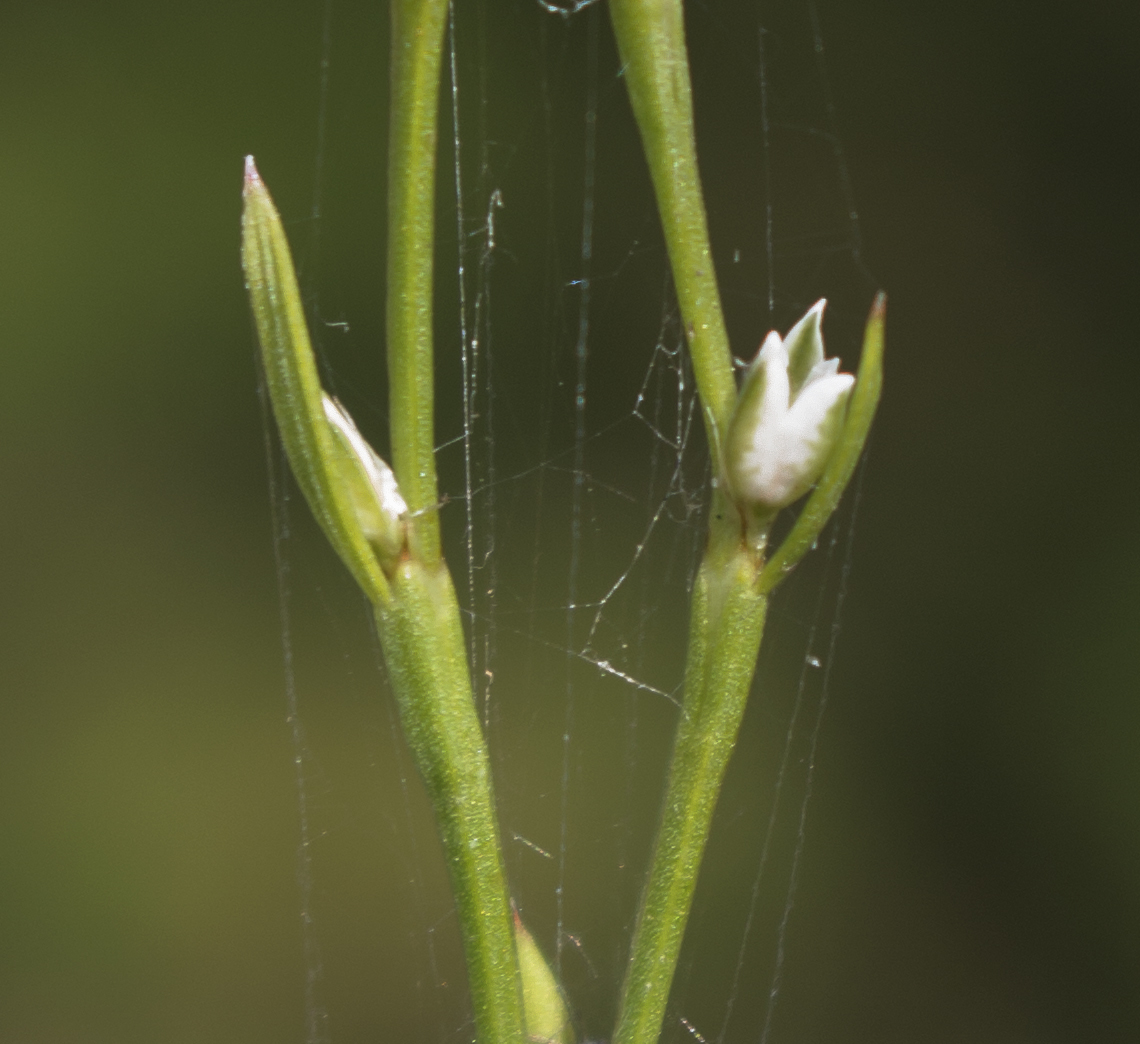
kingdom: Plantae
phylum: Tracheophyta
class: Magnoliopsida
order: Caryophyllales
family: Polygonaceae
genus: Polygonum
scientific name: Polygonum tenue
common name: Pleat-leaved knotweed
